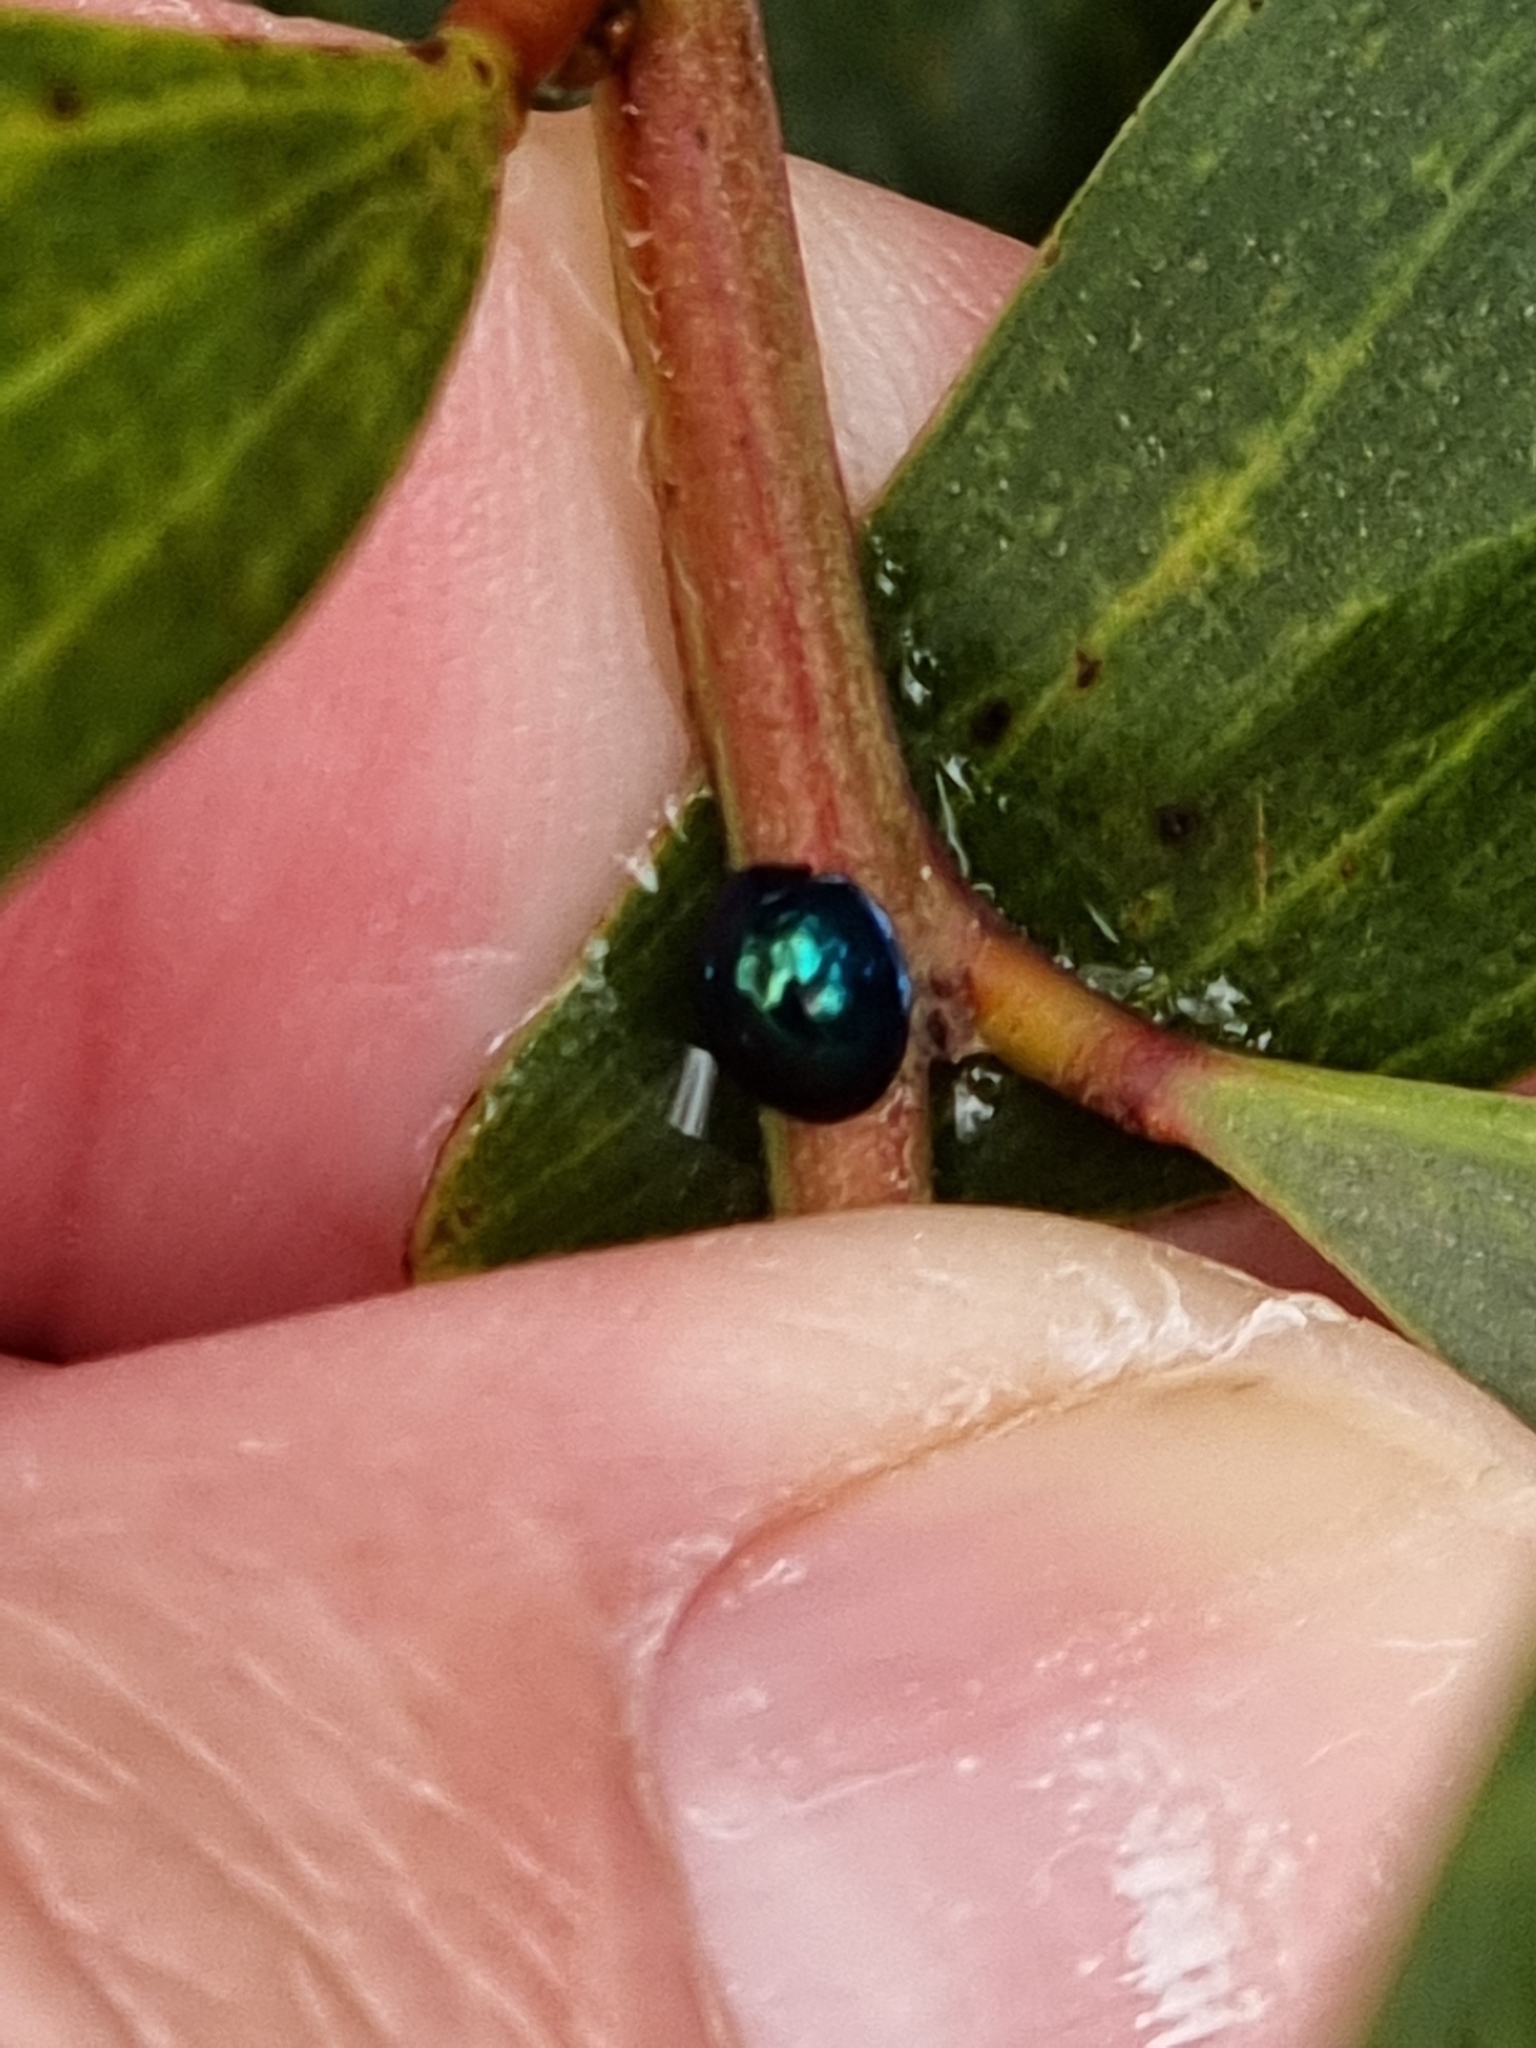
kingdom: Animalia
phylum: Arthropoda
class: Insecta
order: Coleoptera
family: Coccinellidae
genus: Halmus
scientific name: Halmus chalybeus
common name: Steel blue ladybird beetle
